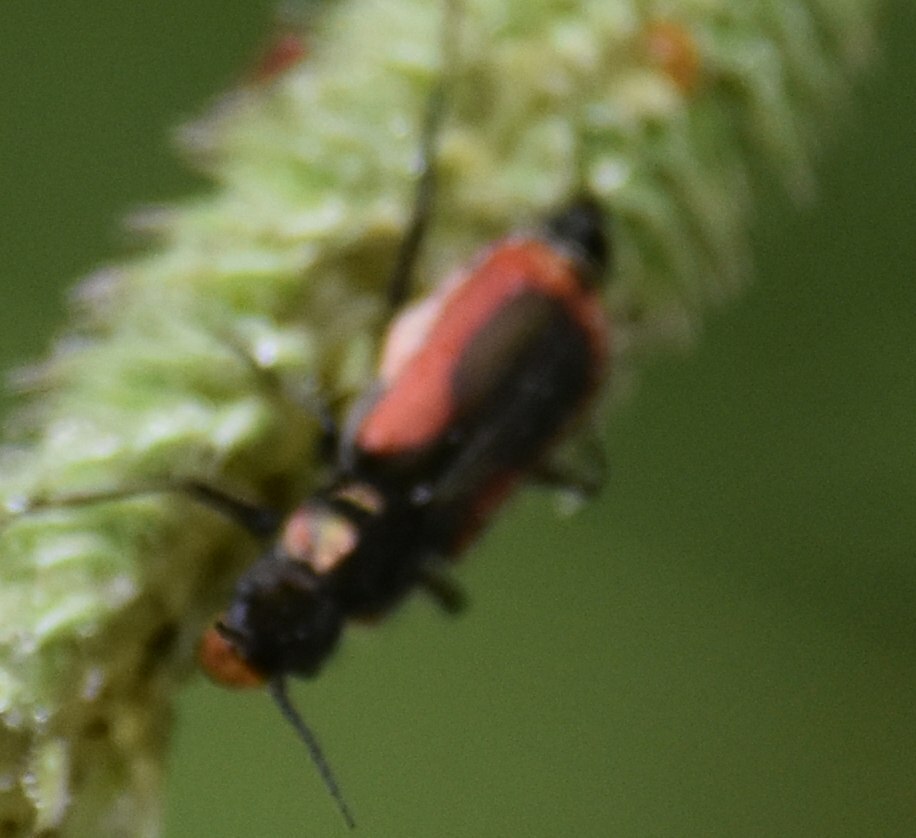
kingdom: Animalia
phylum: Arthropoda
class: Insecta
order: Coleoptera
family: Melyridae
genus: Malachius
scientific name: Malachius aeneus
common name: Scarlet malachite beetle
